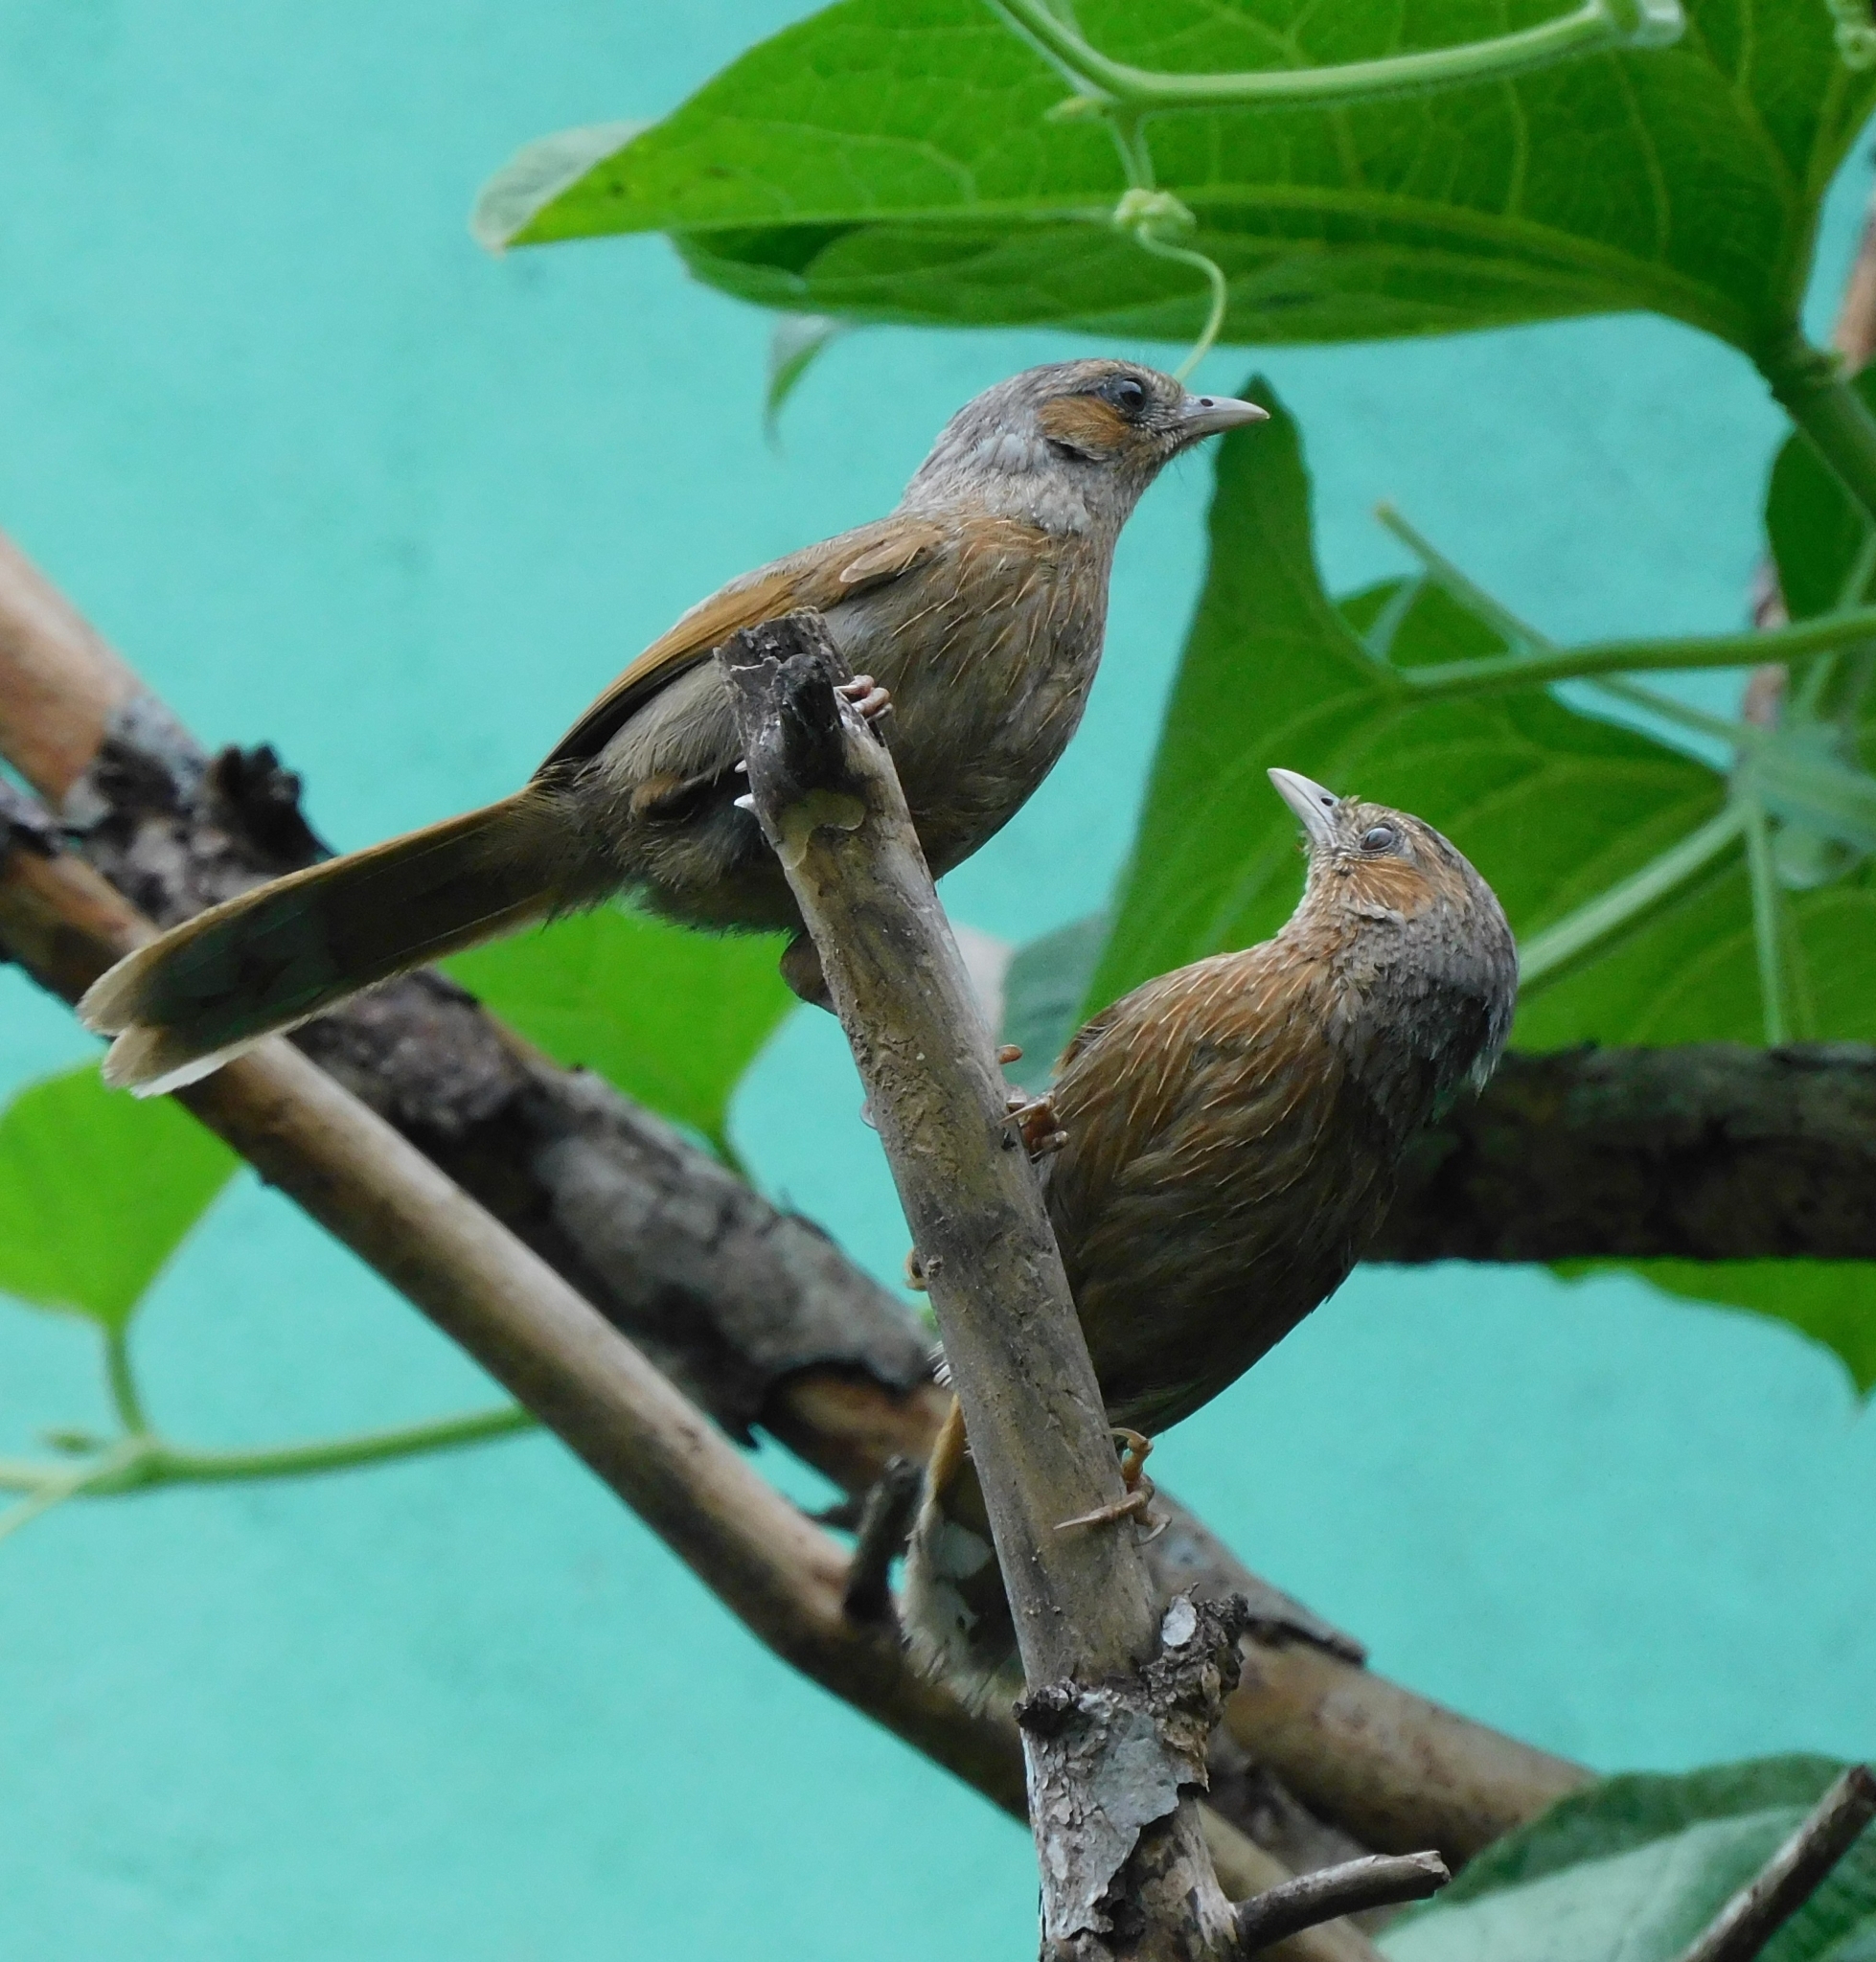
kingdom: Animalia
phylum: Chordata
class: Aves
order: Passeriformes
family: Leiothrichidae
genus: Trochalopteron
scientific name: Trochalopteron lineatum
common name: Streaked laughingthrush
